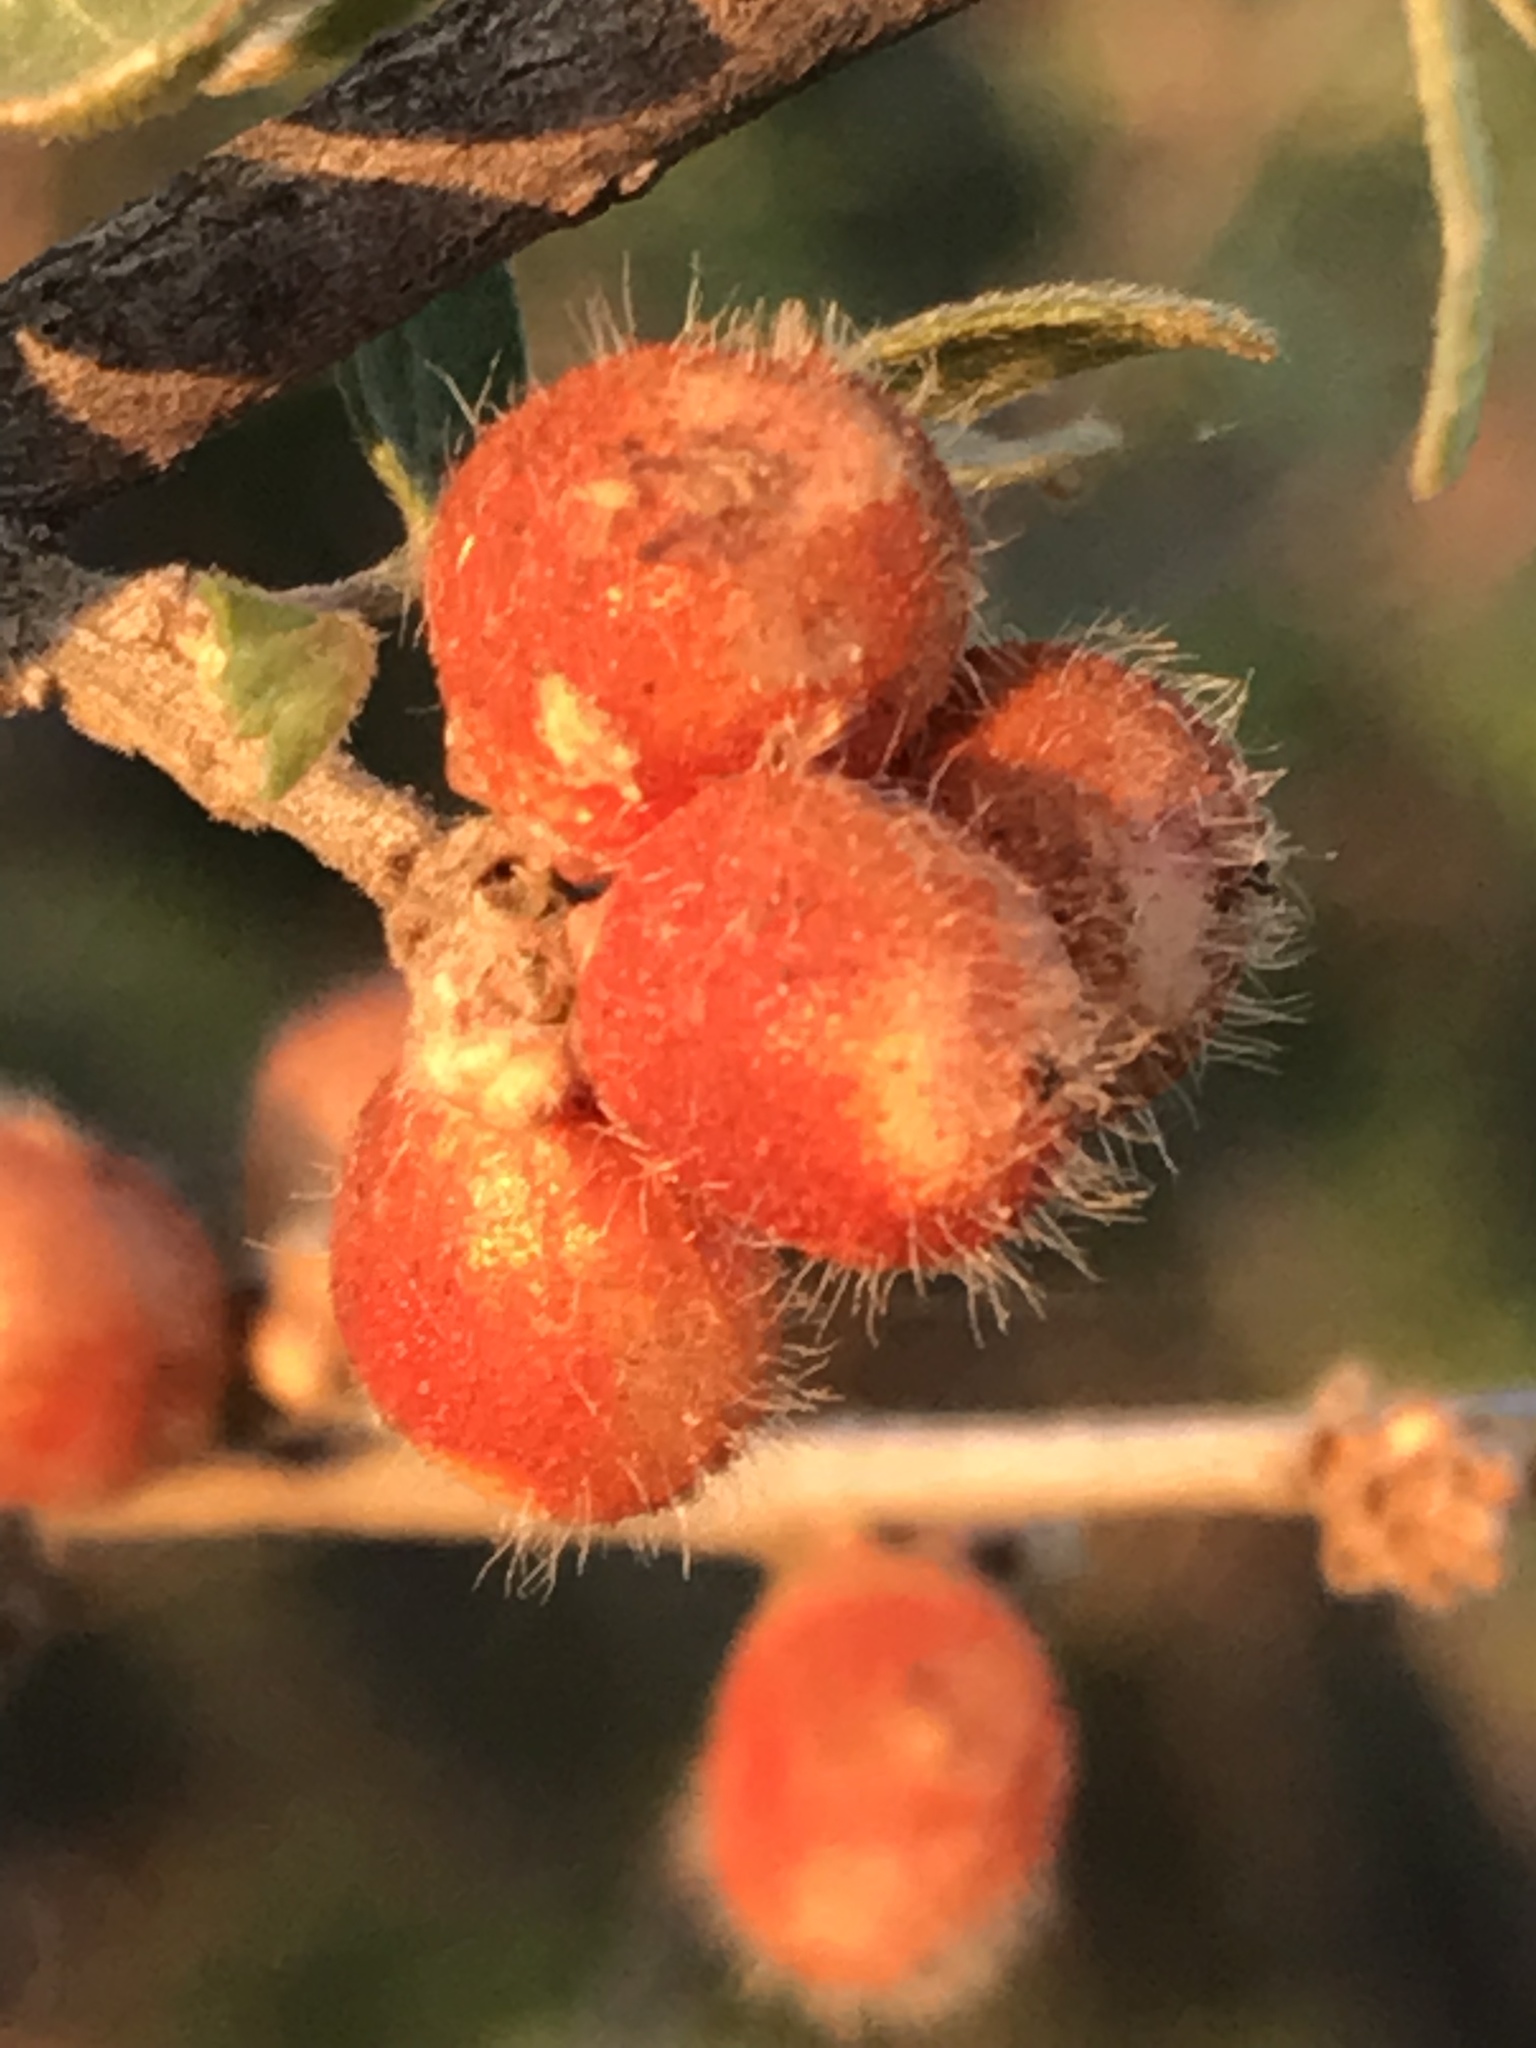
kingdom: Plantae
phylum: Tracheophyta
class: Magnoliopsida
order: Sapindales
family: Anacardiaceae
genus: Rhus
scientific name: Rhus microphylla
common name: Desert sumac
